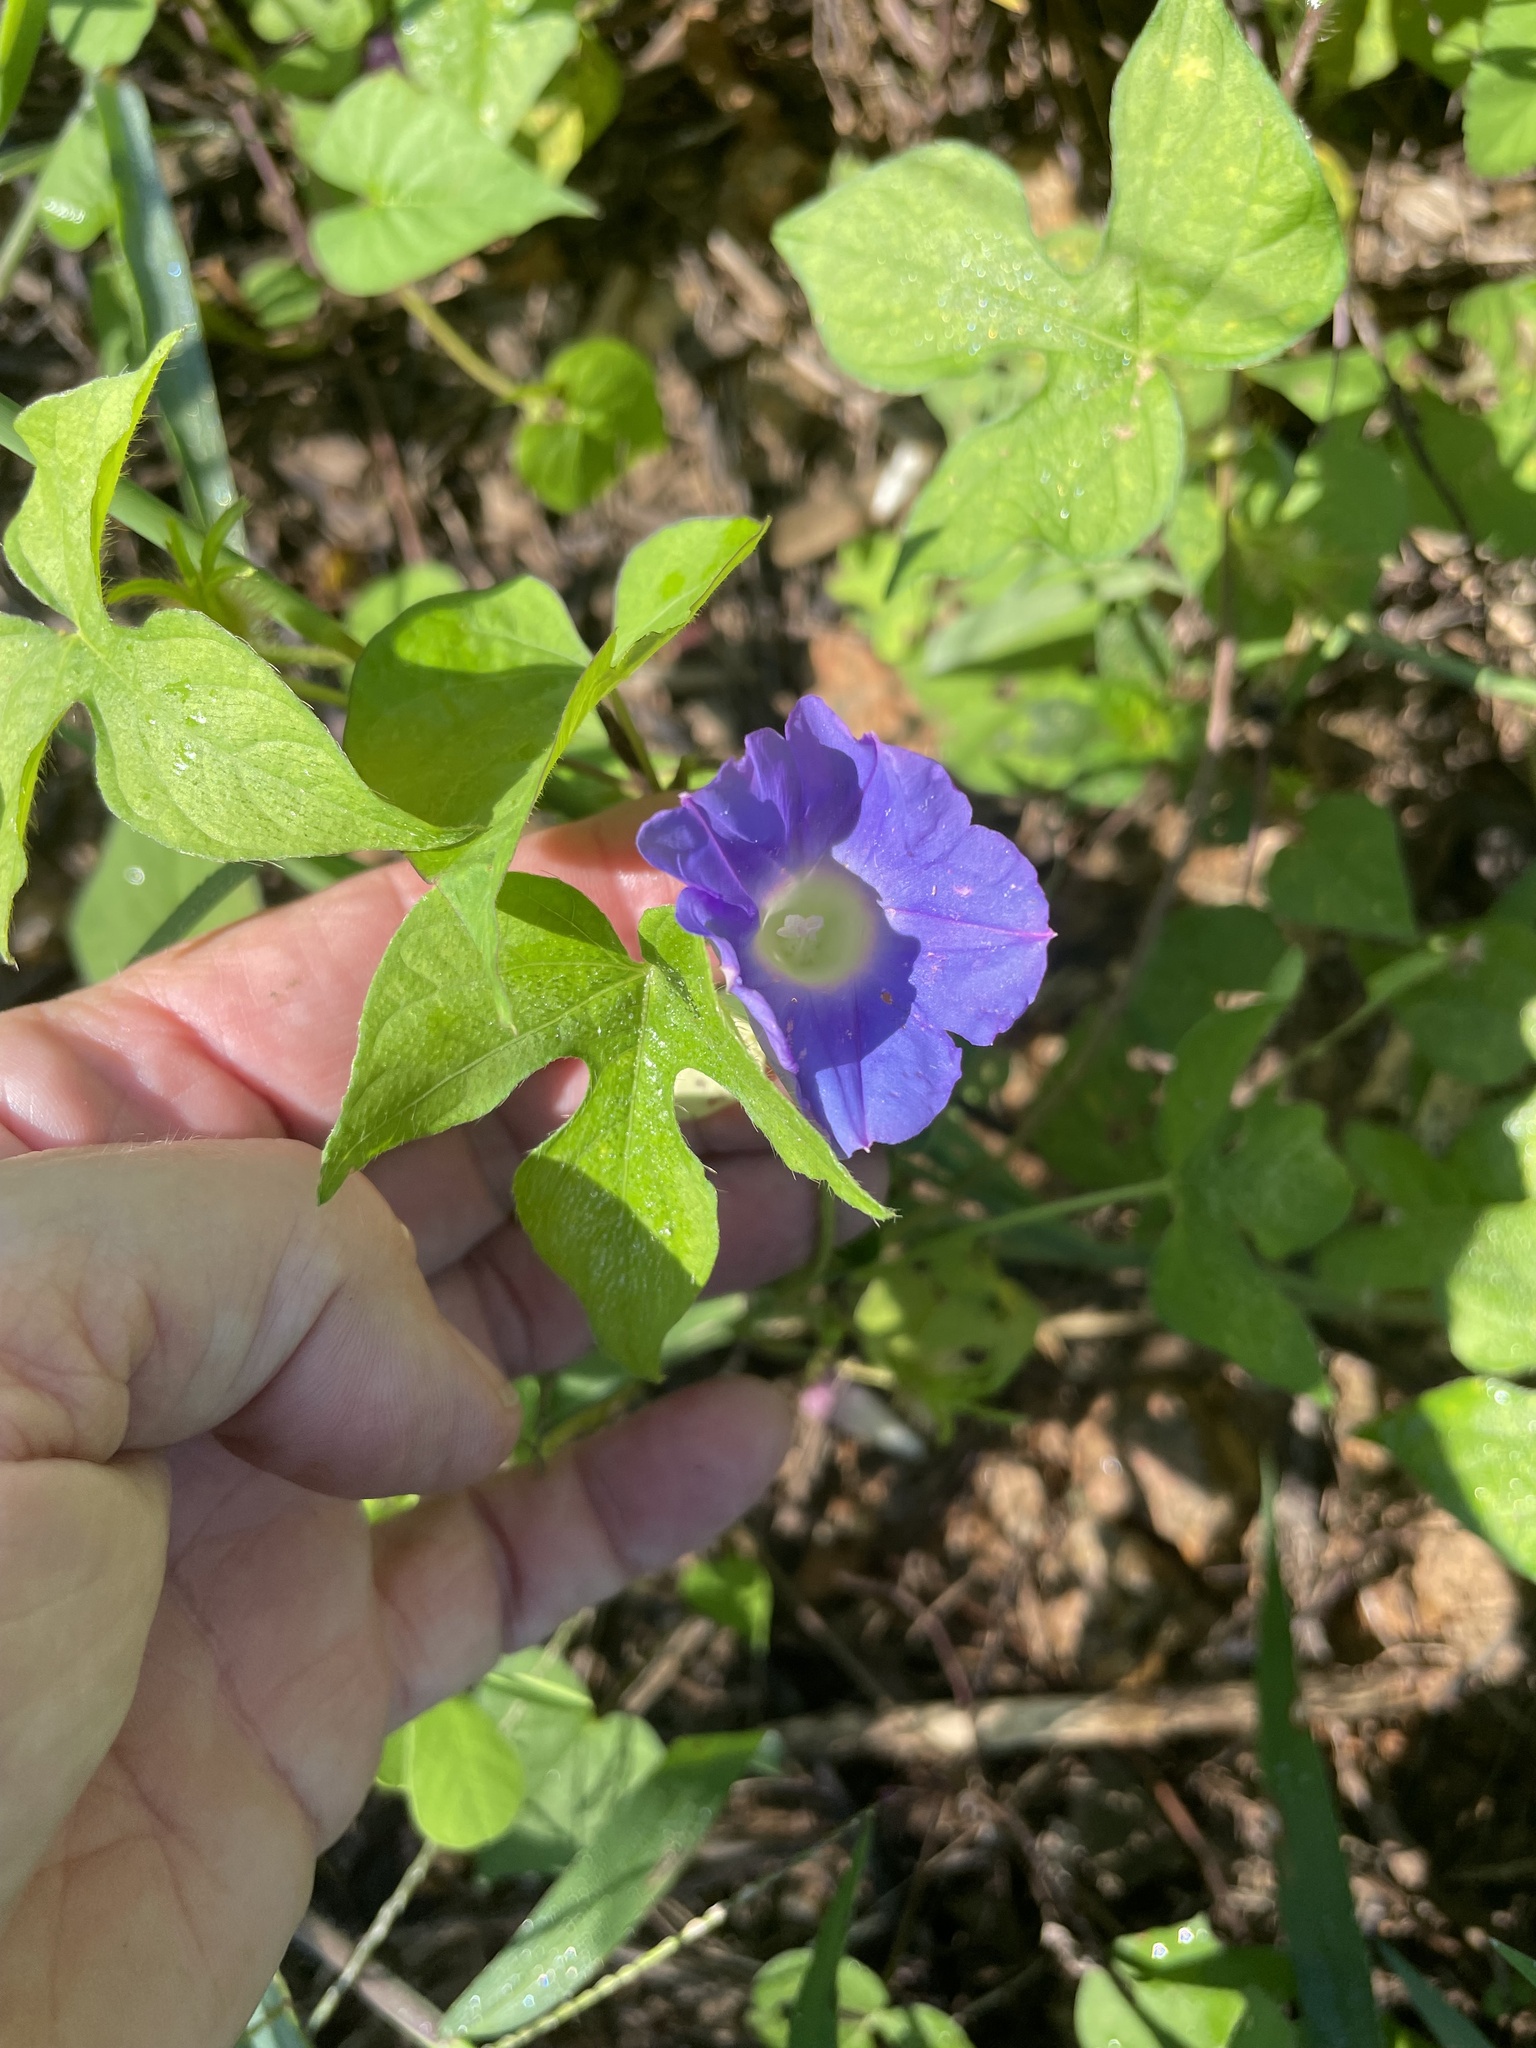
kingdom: Plantae
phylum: Tracheophyta
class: Magnoliopsida
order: Solanales
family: Convolvulaceae
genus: Ipomoea
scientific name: Ipomoea hederacea
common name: Ivy-leaved morning-glory
